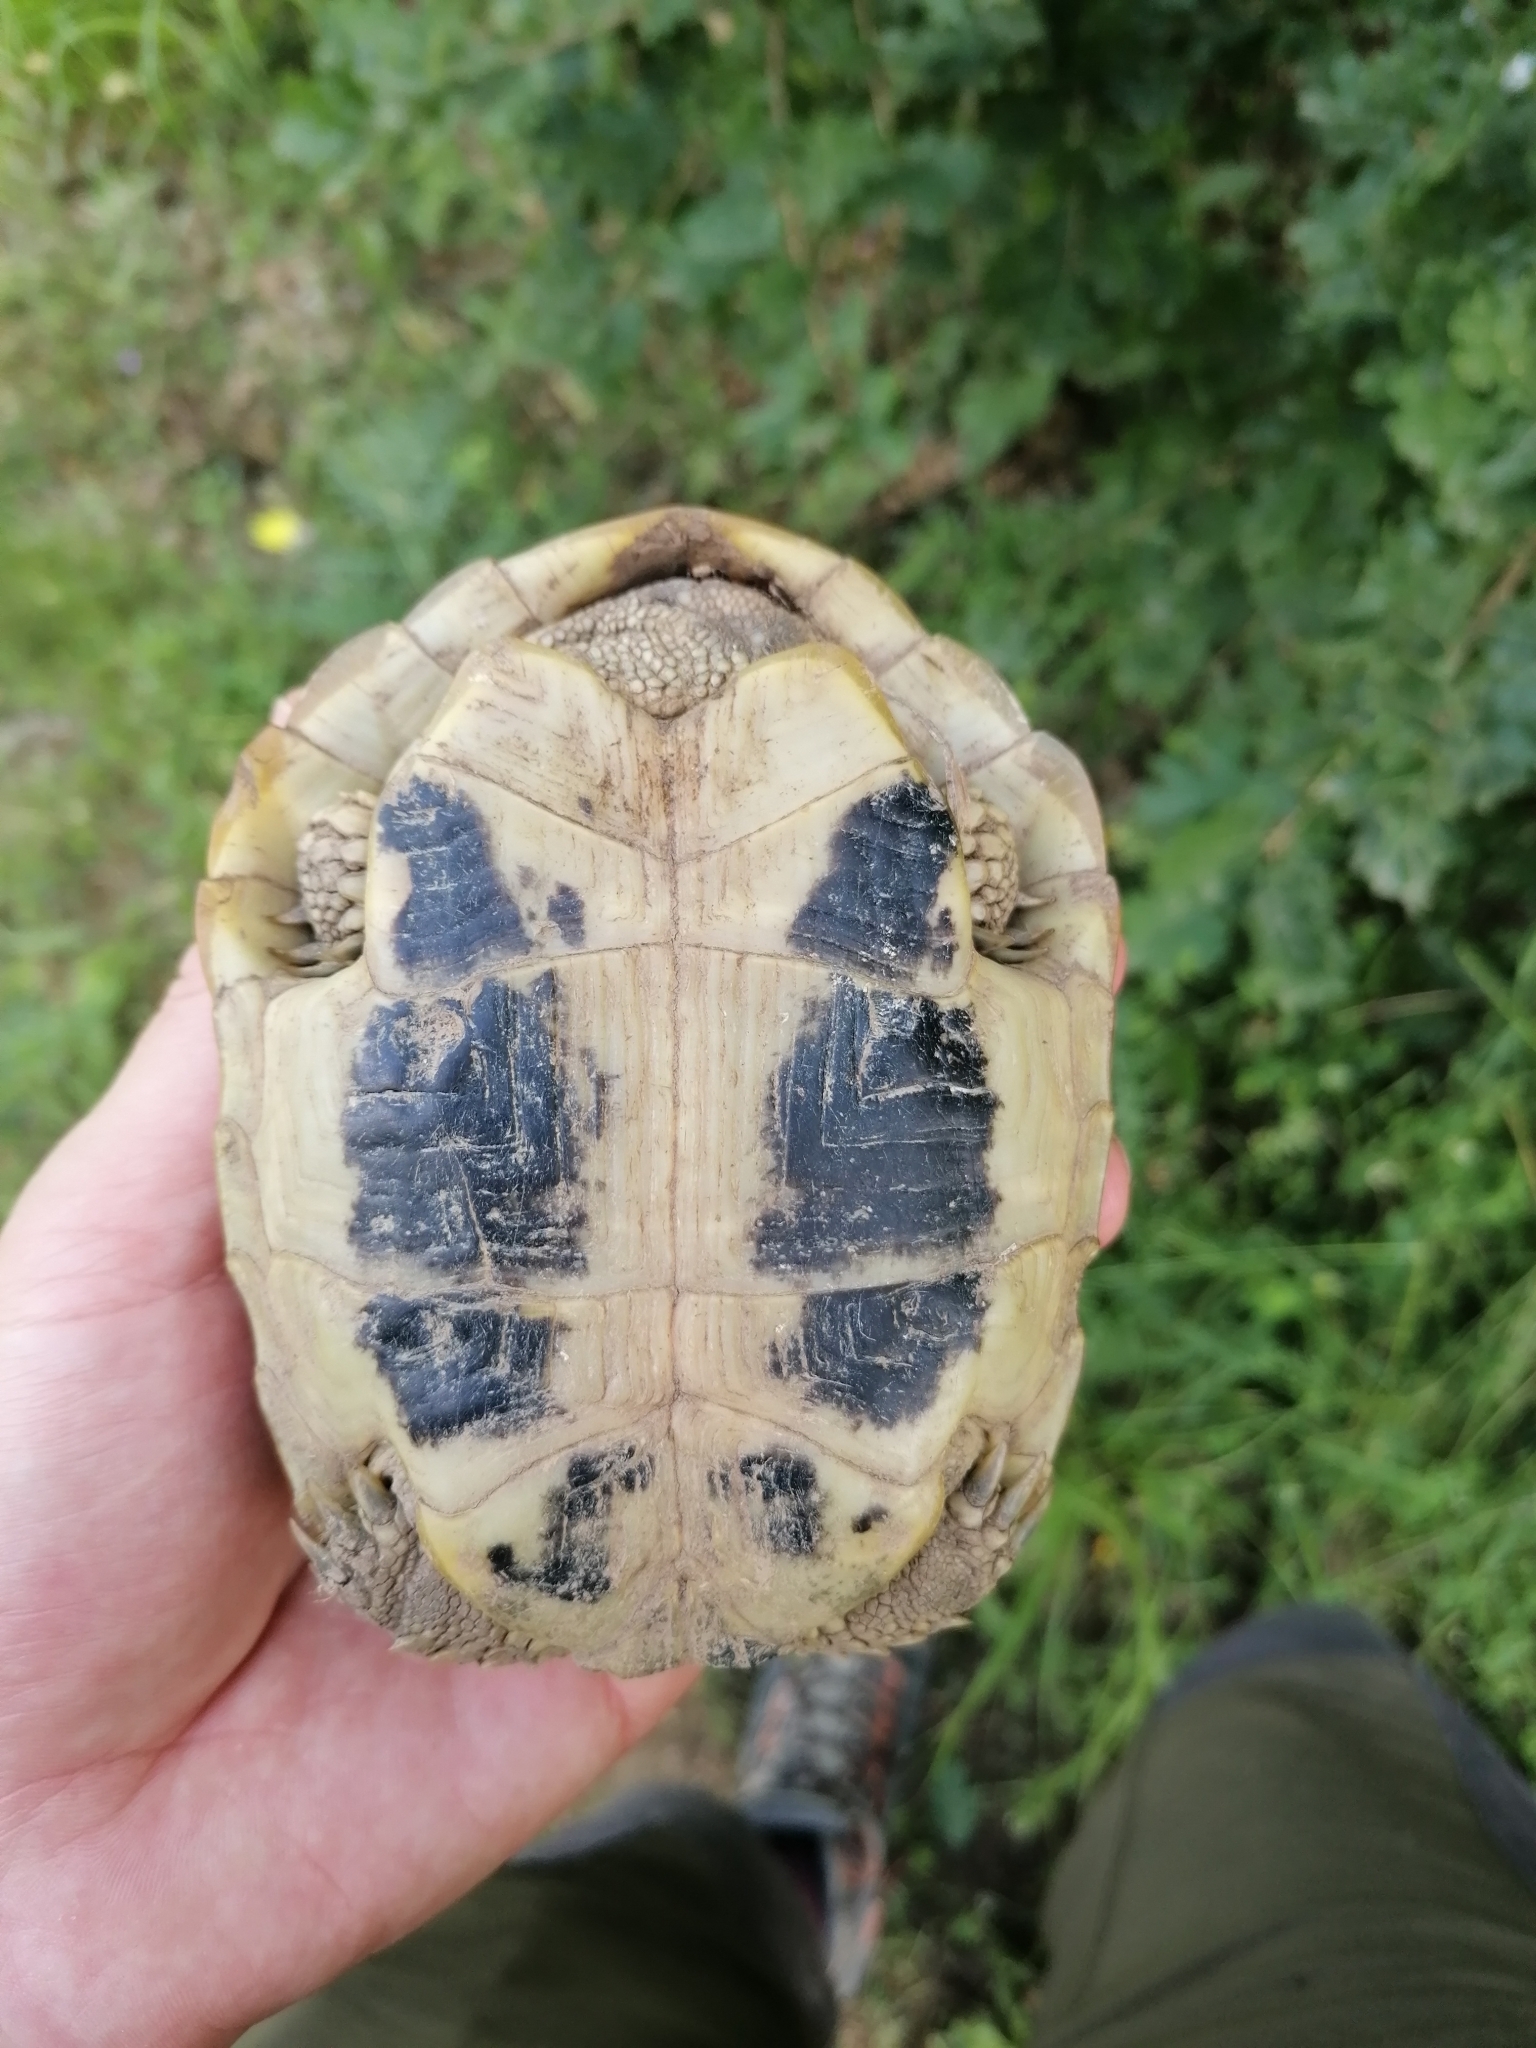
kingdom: Animalia
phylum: Chordata
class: Testudines
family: Testudinidae
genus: Testudo
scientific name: Testudo hermanni
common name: Hermann's tortoise
